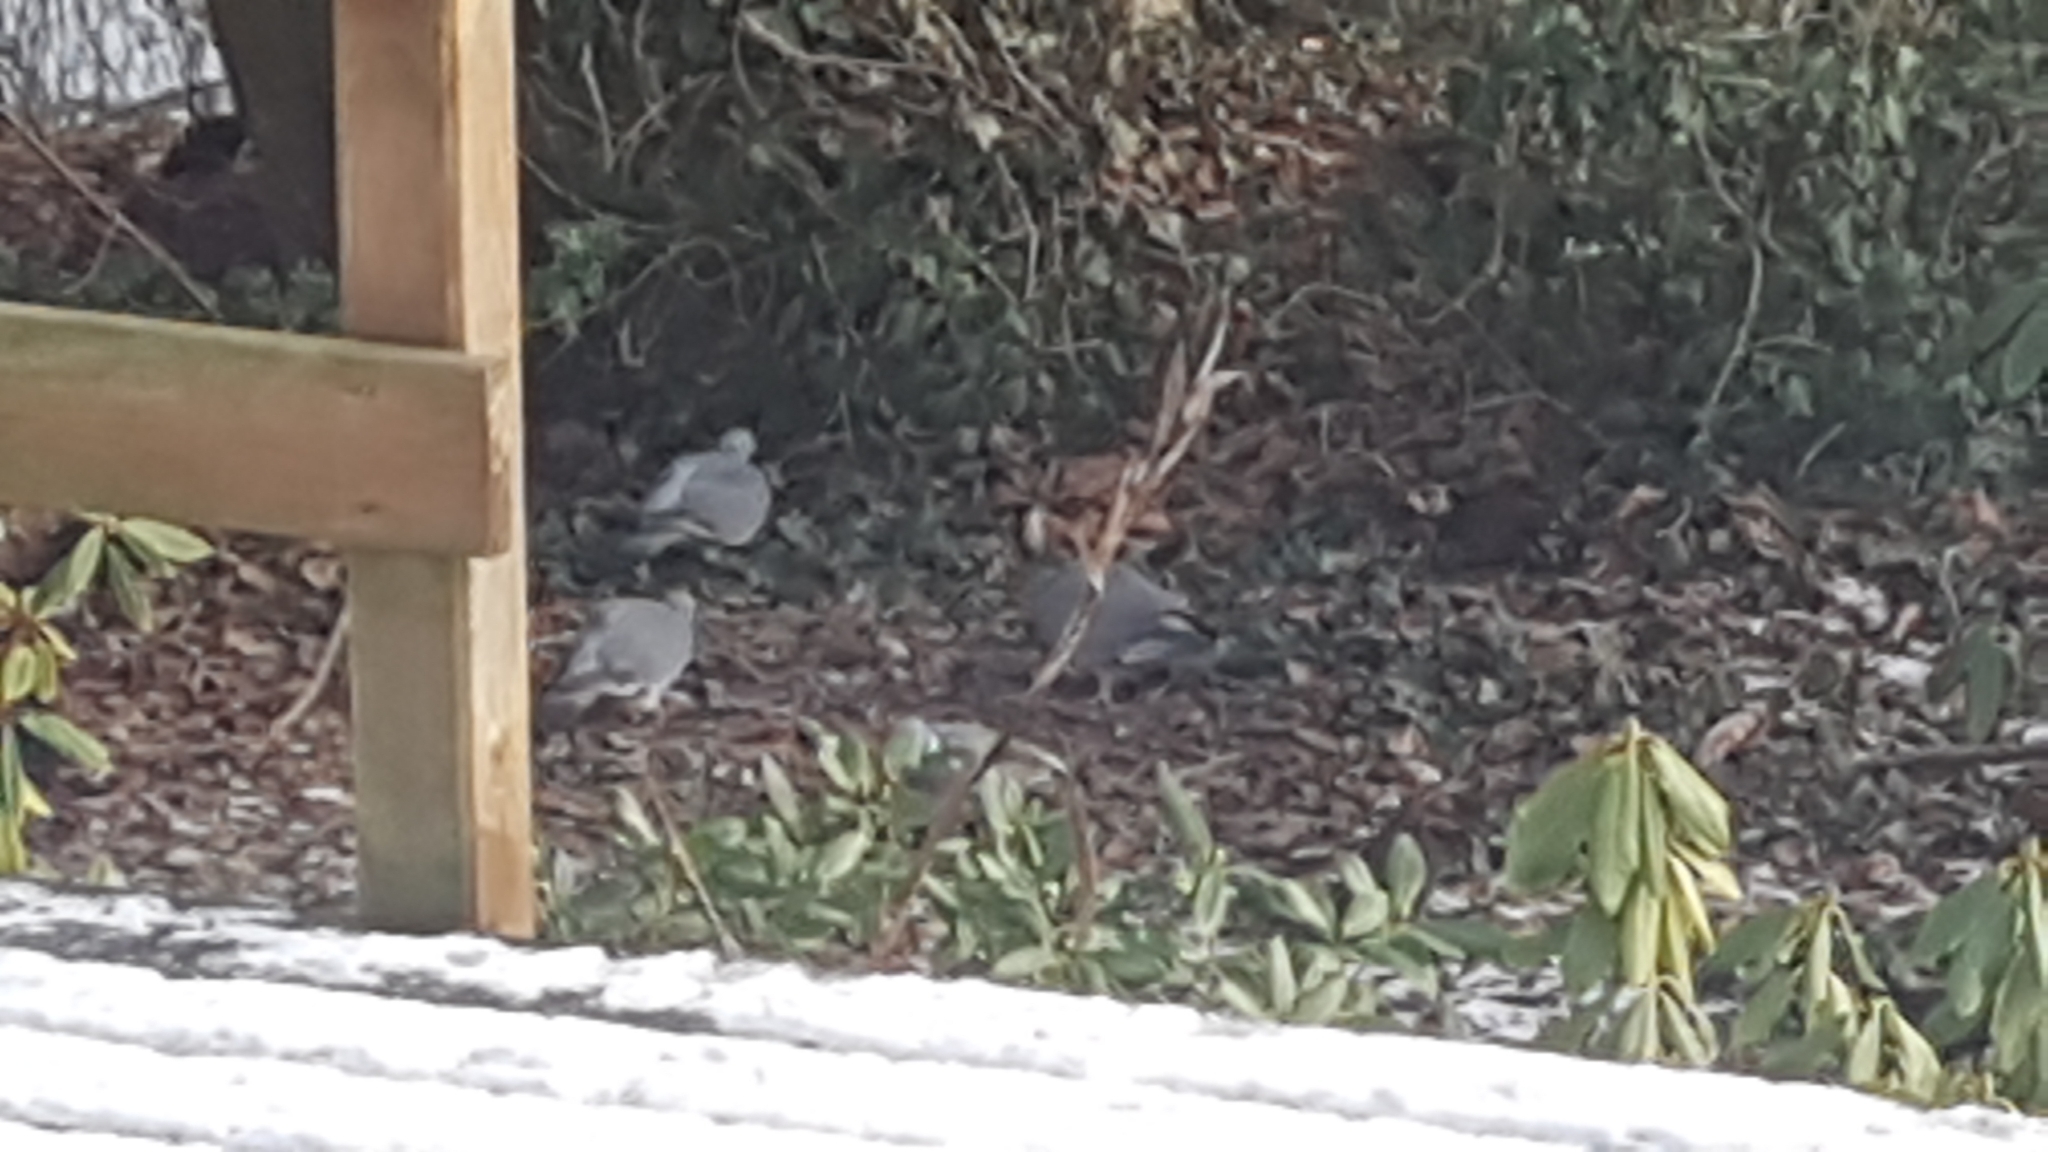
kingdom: Animalia
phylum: Chordata
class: Aves
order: Columbiformes
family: Columbidae
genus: Columba
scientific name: Columba palumbus
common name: Common wood pigeon
